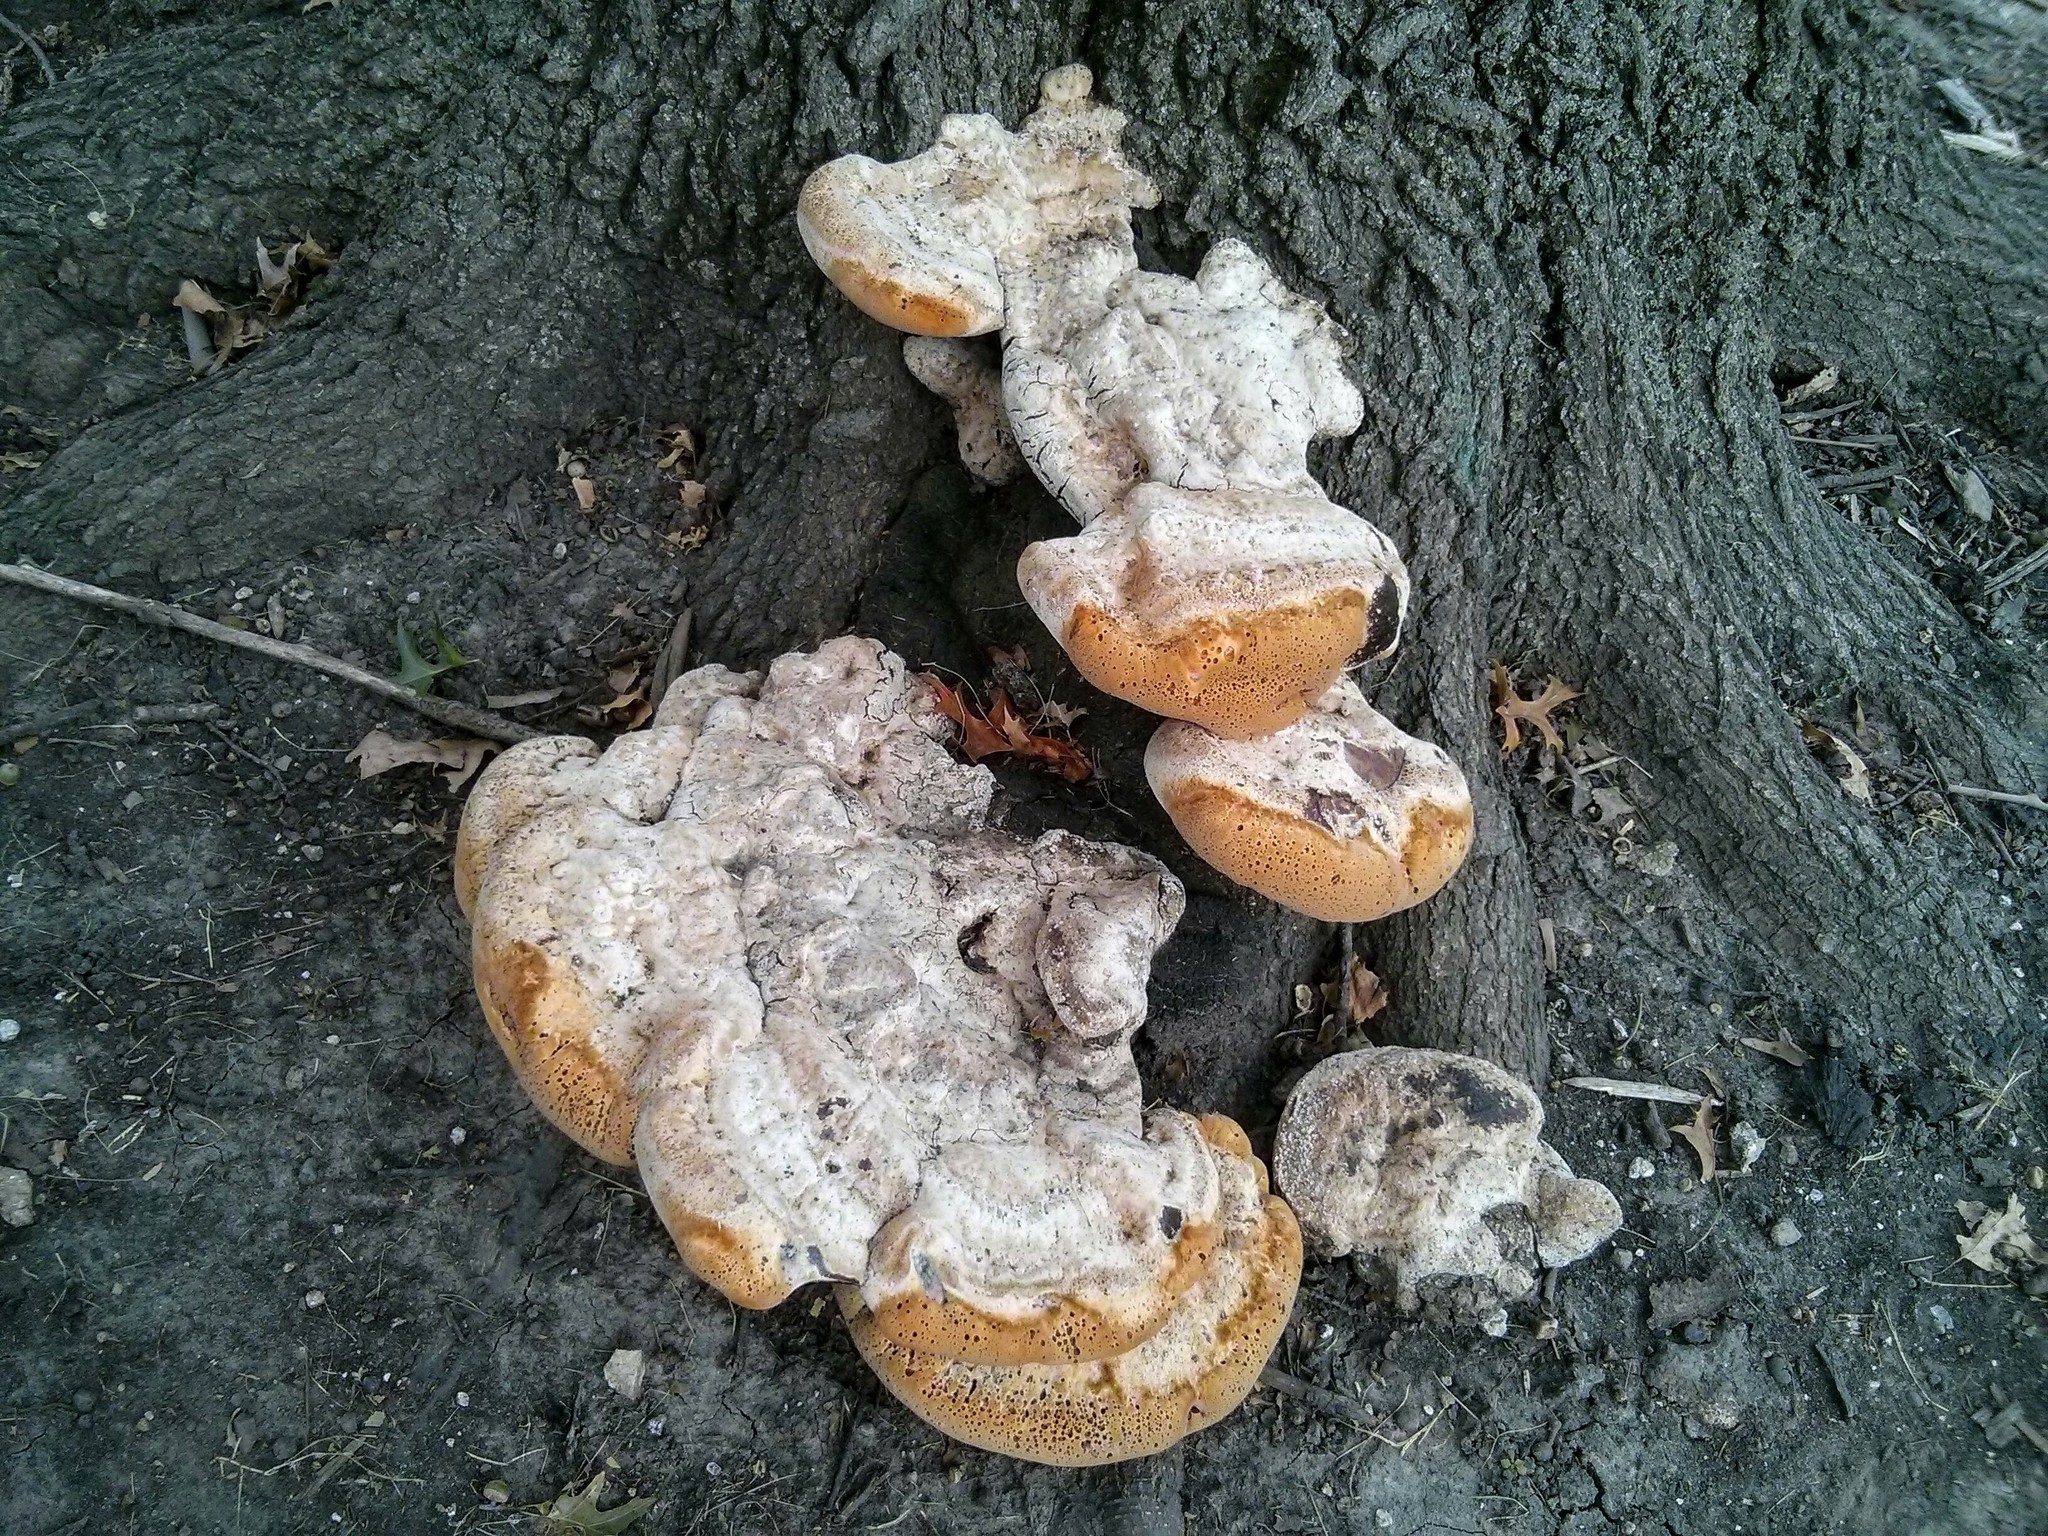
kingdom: Fungi
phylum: Basidiomycota
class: Agaricomycetes
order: Hymenochaetales
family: Hymenochaetaceae
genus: Pseudoinonotus
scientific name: Pseudoinonotus dryadeus
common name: Oak bracket
